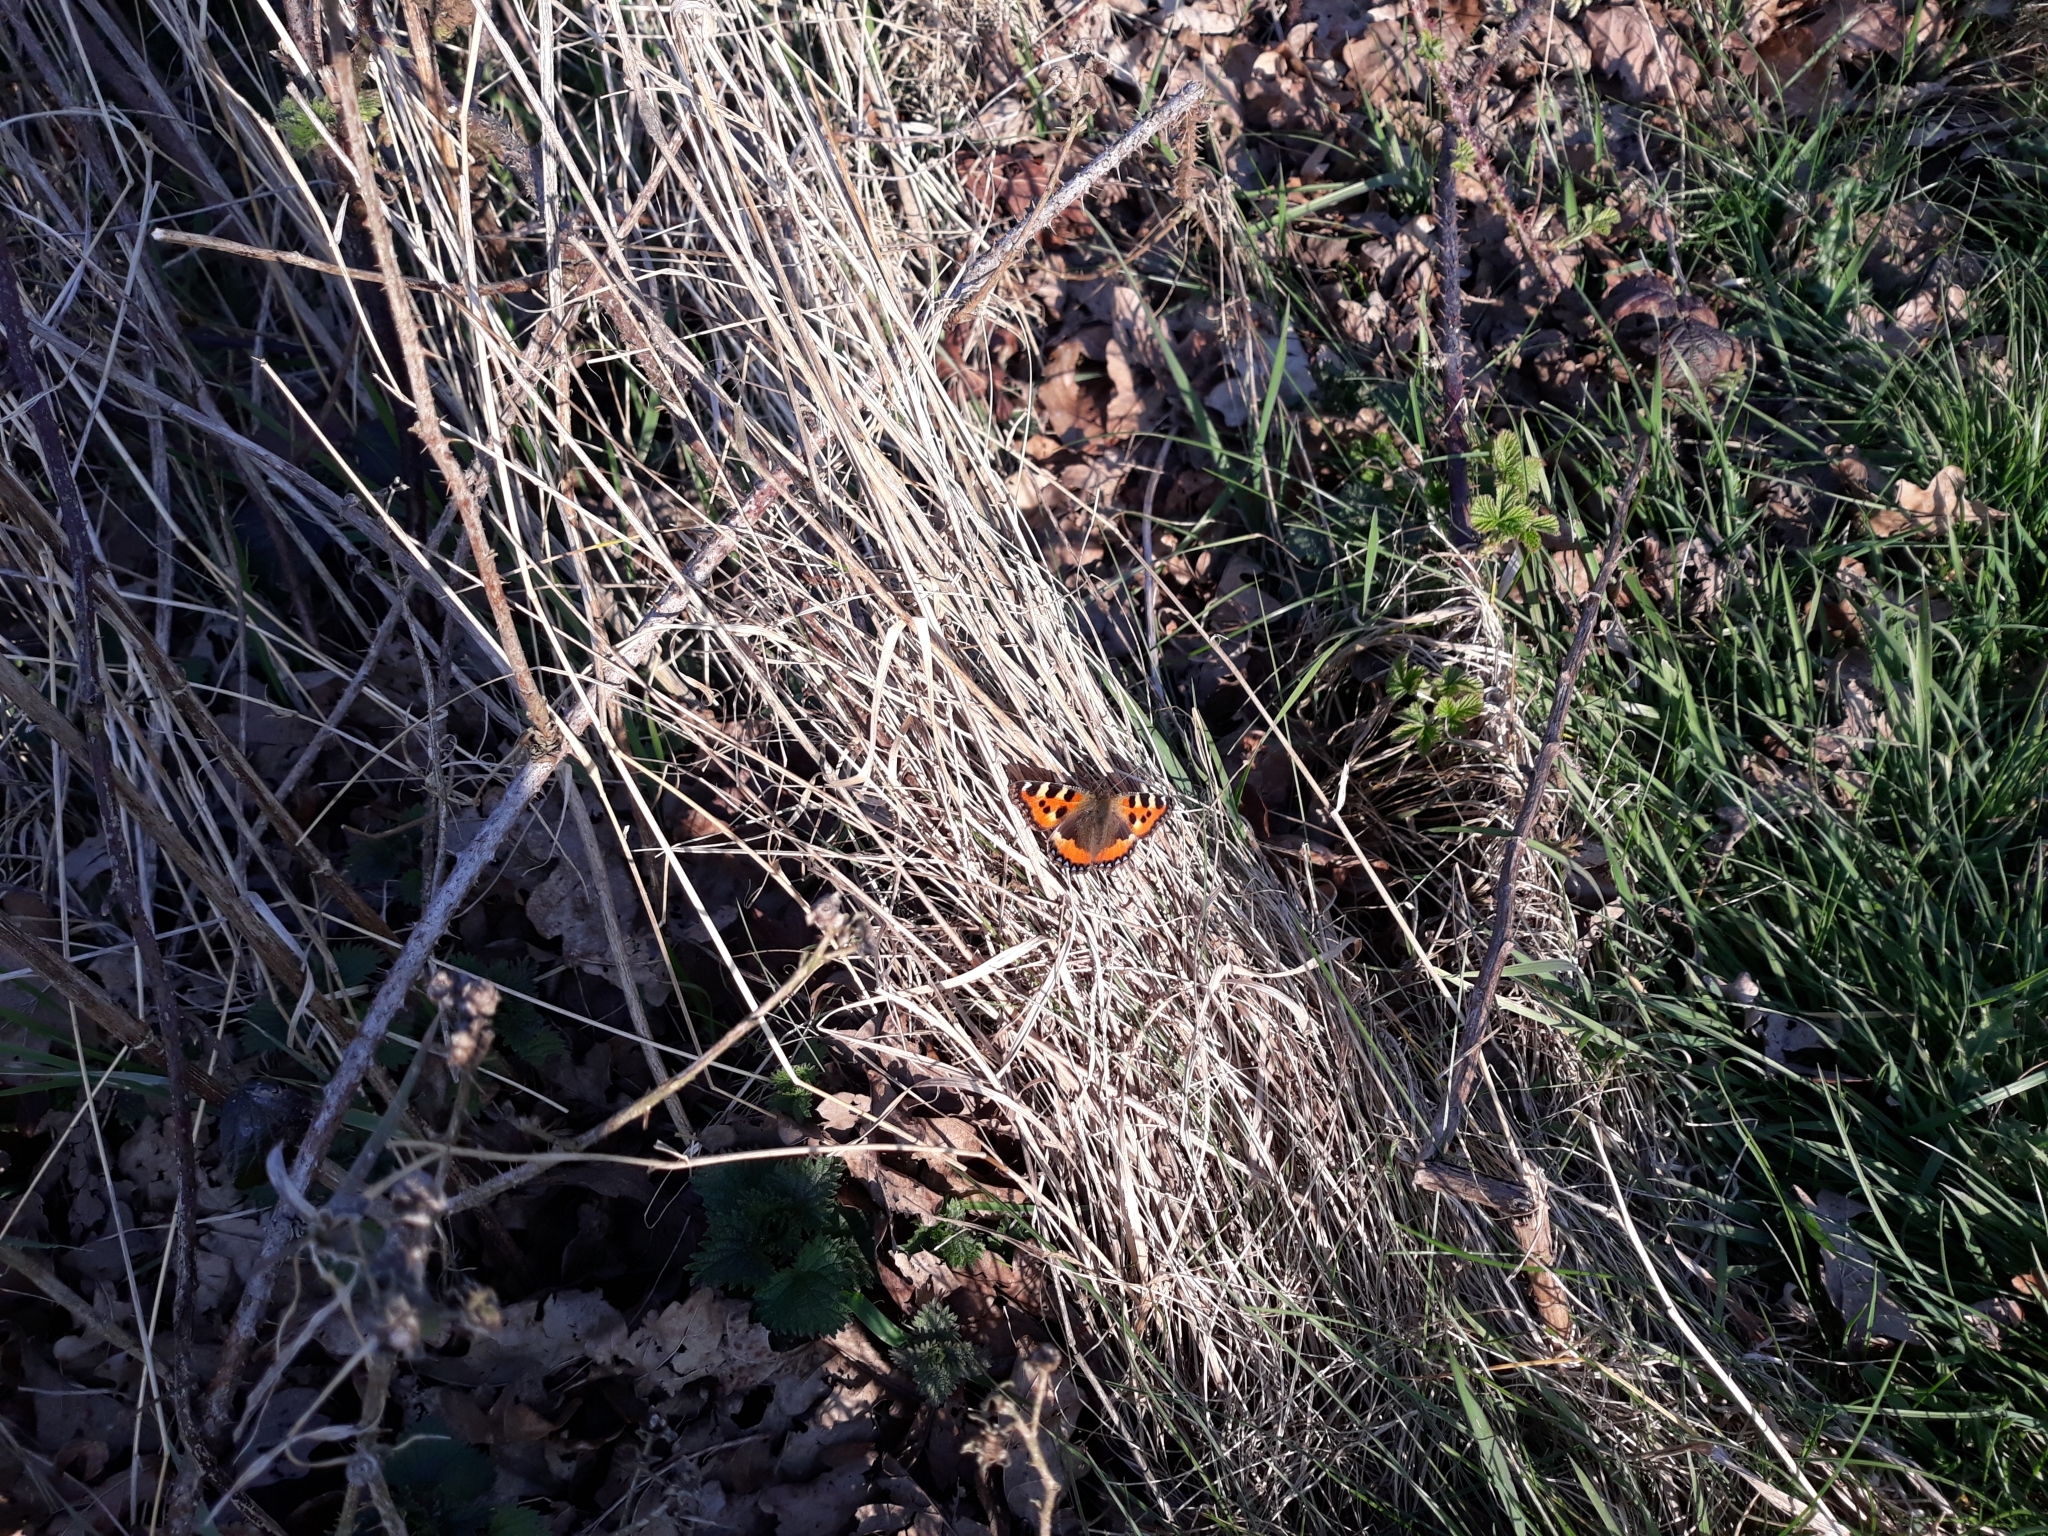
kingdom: Animalia
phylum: Arthropoda
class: Insecta
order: Lepidoptera
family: Nymphalidae
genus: Aglais
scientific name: Aglais urticae
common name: Small tortoiseshell
